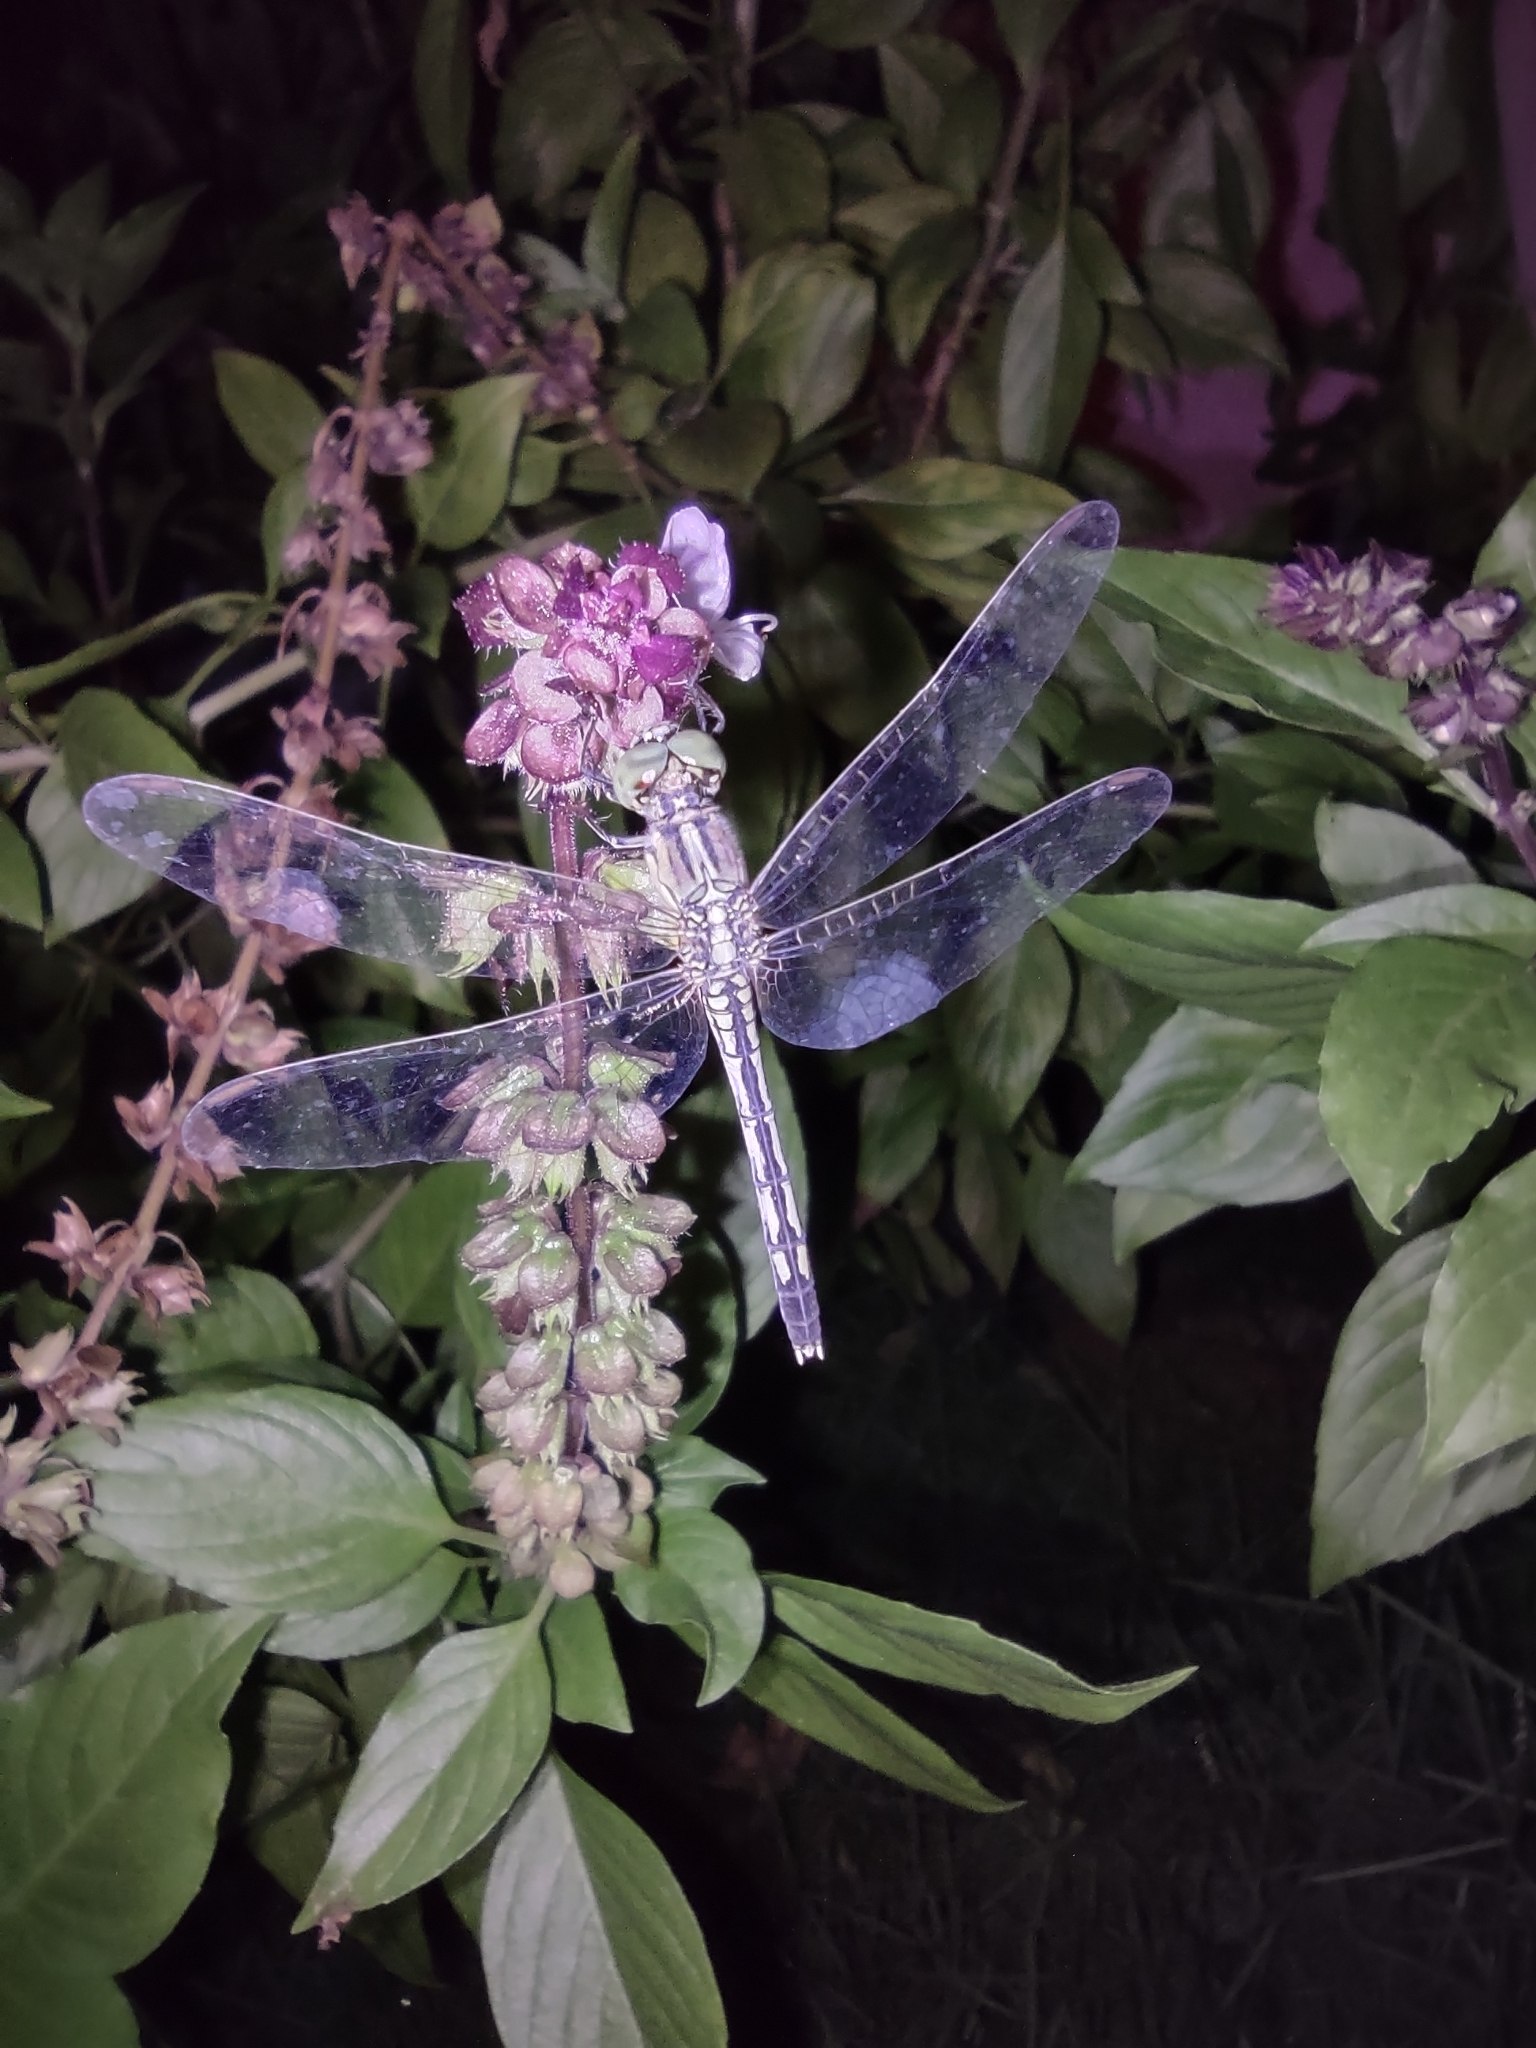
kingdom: Animalia
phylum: Arthropoda
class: Insecta
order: Odonata
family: Libellulidae
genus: Diplacodes
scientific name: Diplacodes trivialis
